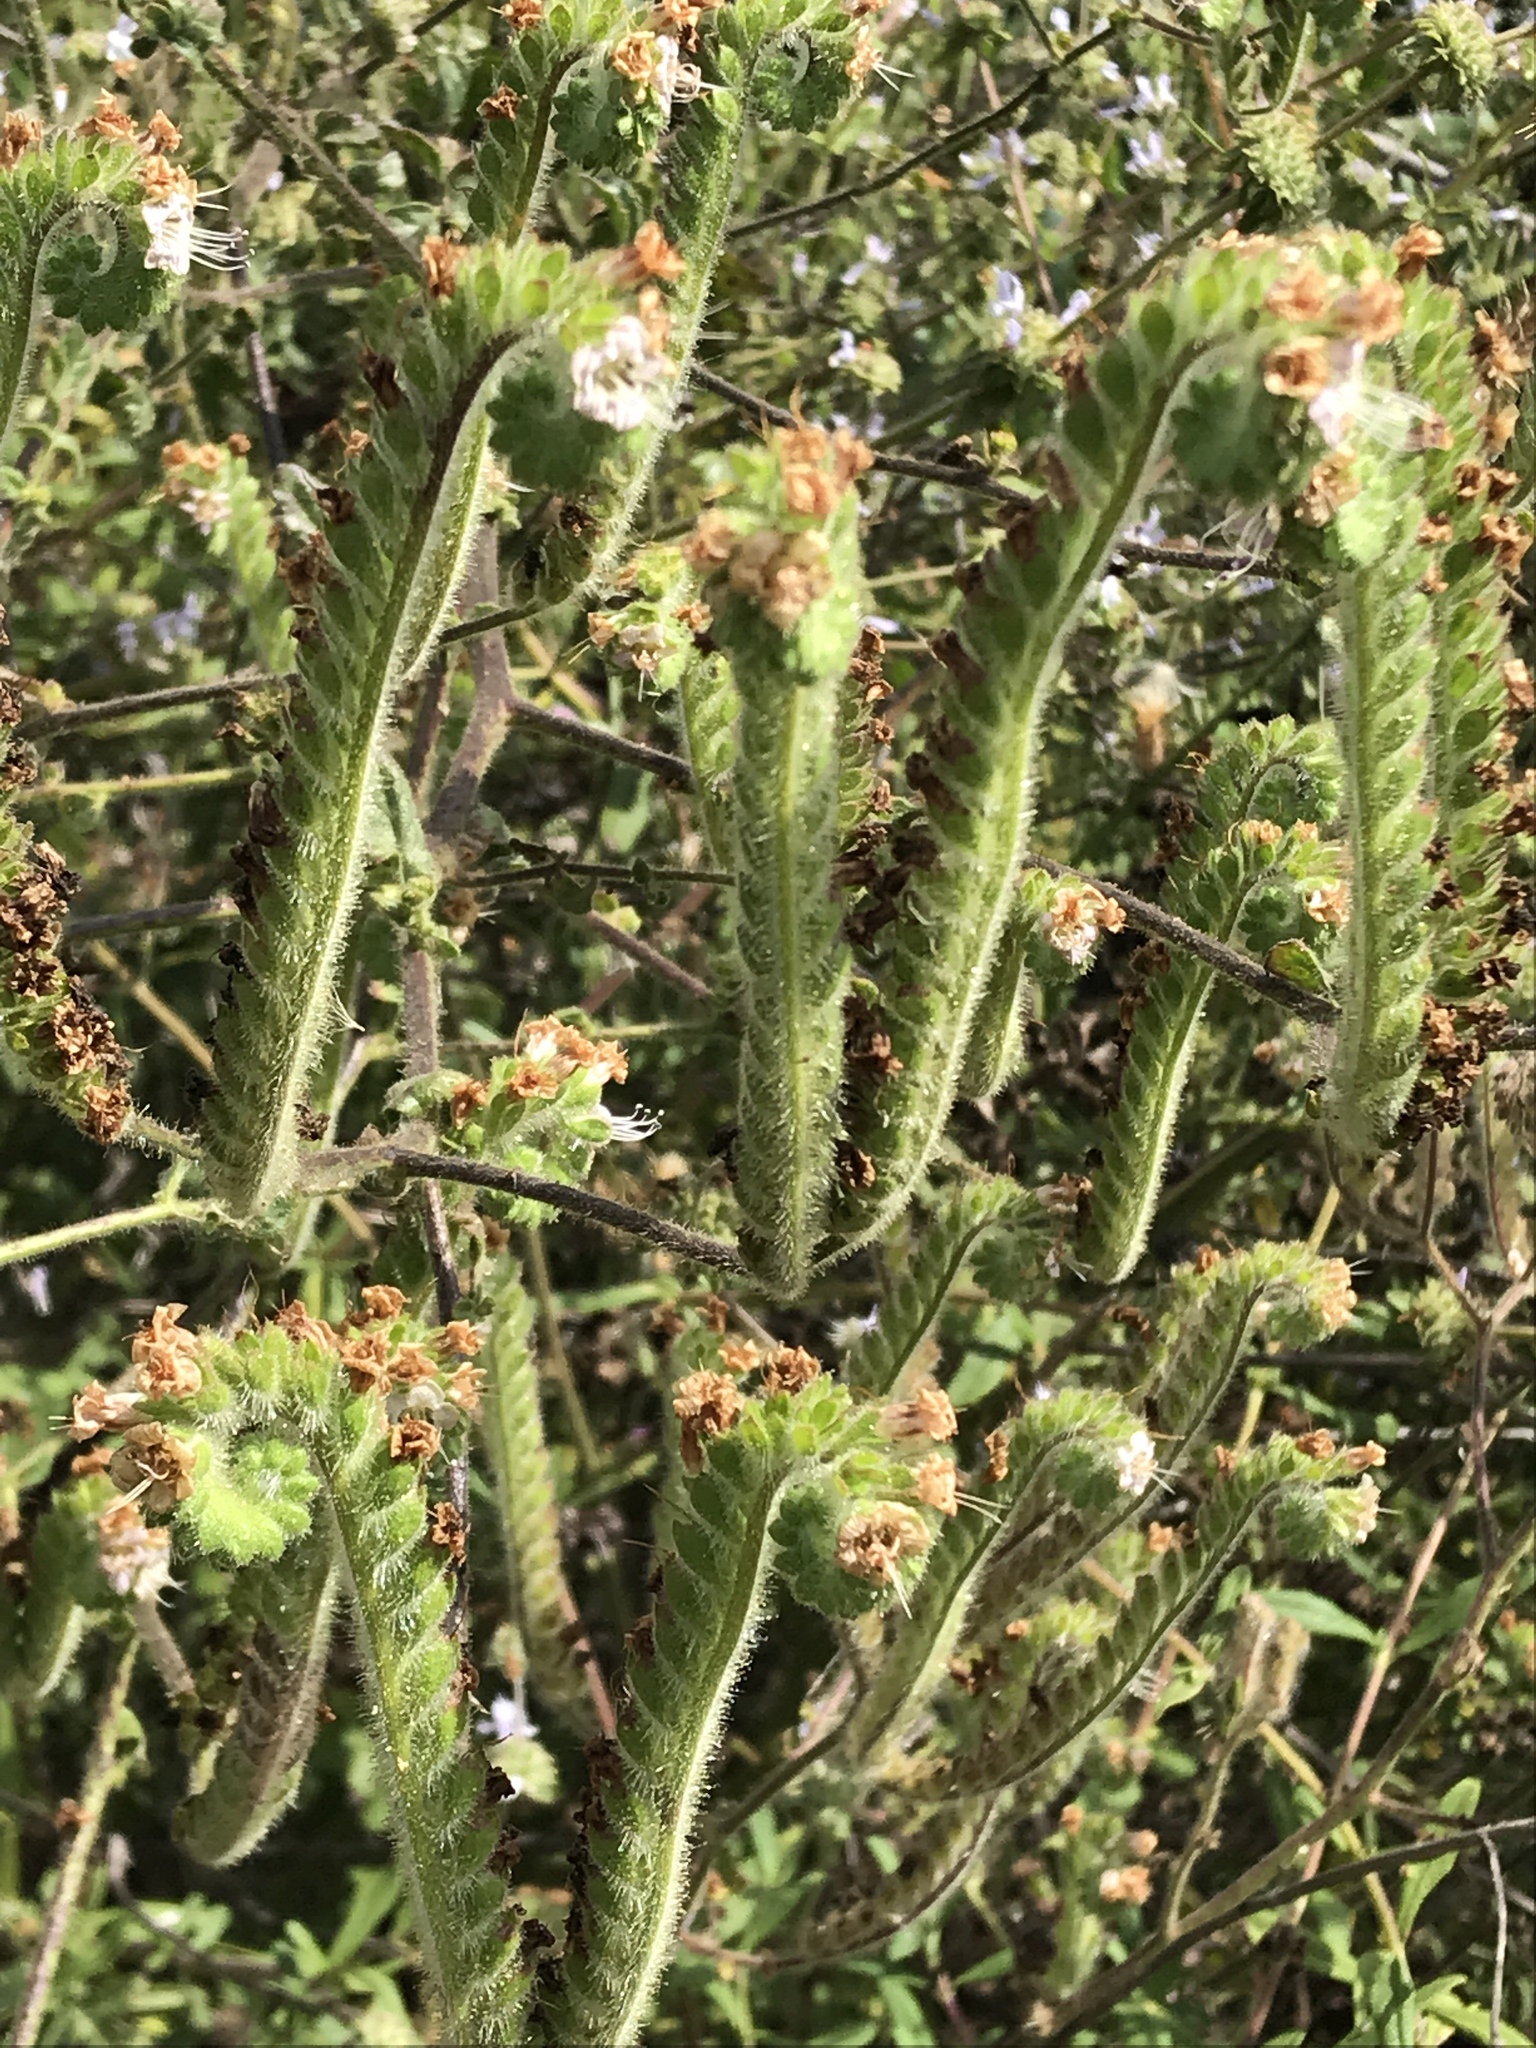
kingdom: Plantae
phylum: Tracheophyta
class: Magnoliopsida
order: Boraginales
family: Hydrophyllaceae
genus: Phacelia
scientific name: Phacelia ramosissima
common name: Branching phacelia
